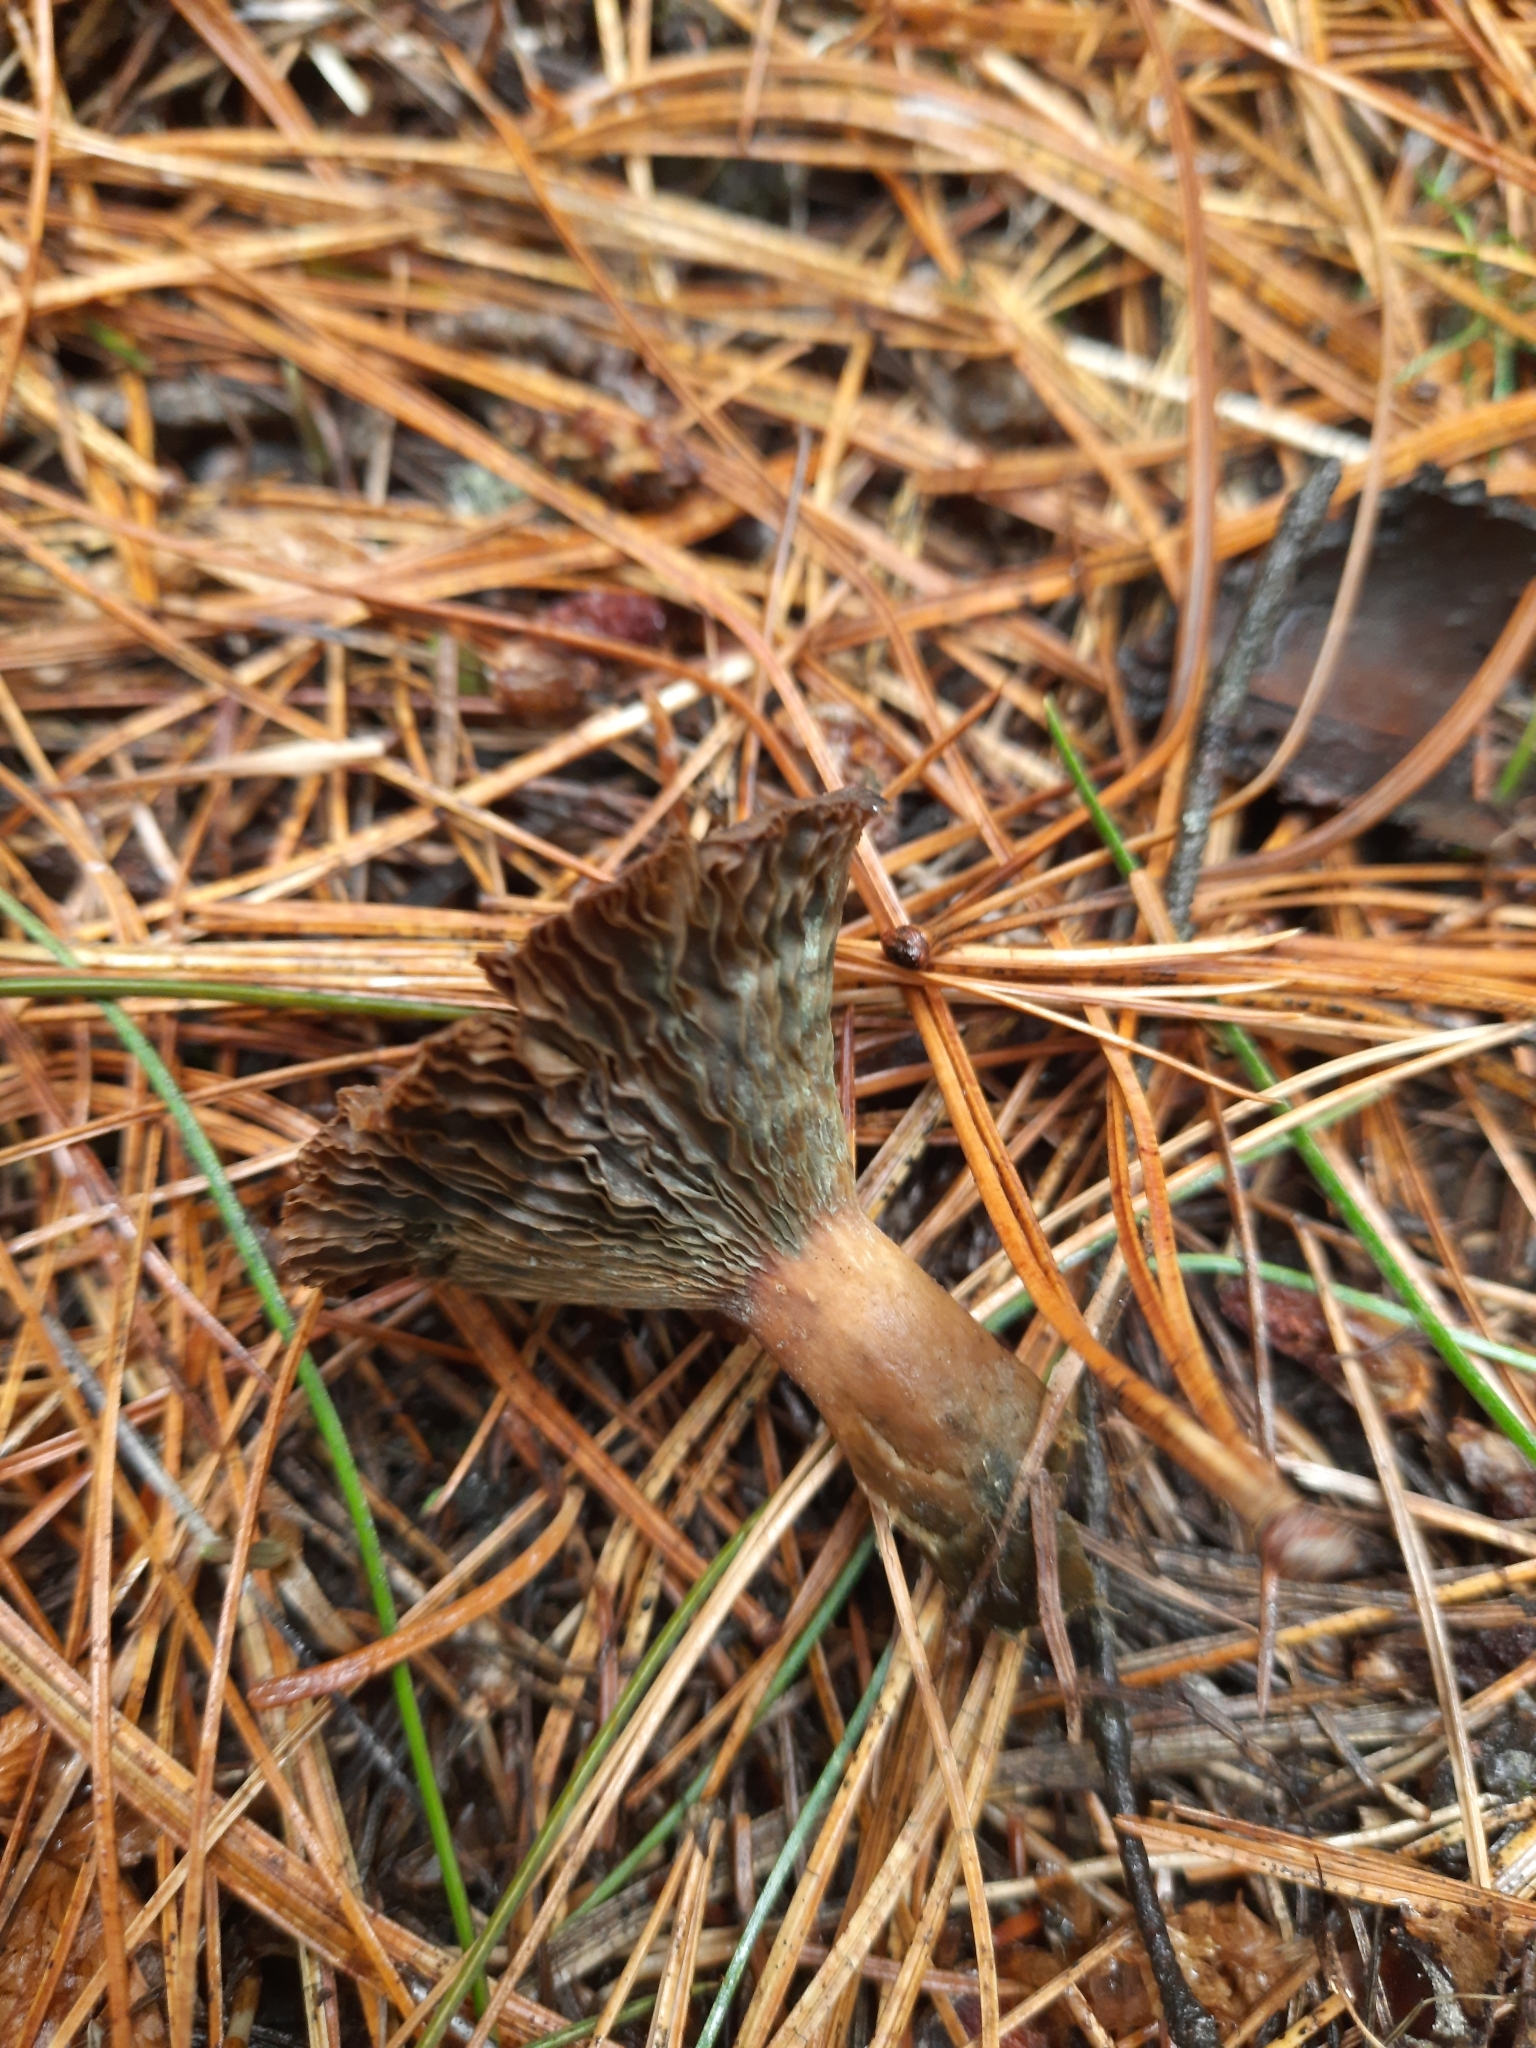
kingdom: Fungi
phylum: Basidiomycota
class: Agaricomycetes
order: Russulales
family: Russulaceae
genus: Lactarius
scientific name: Lactarius deterrimus
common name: False saffron milkcap
